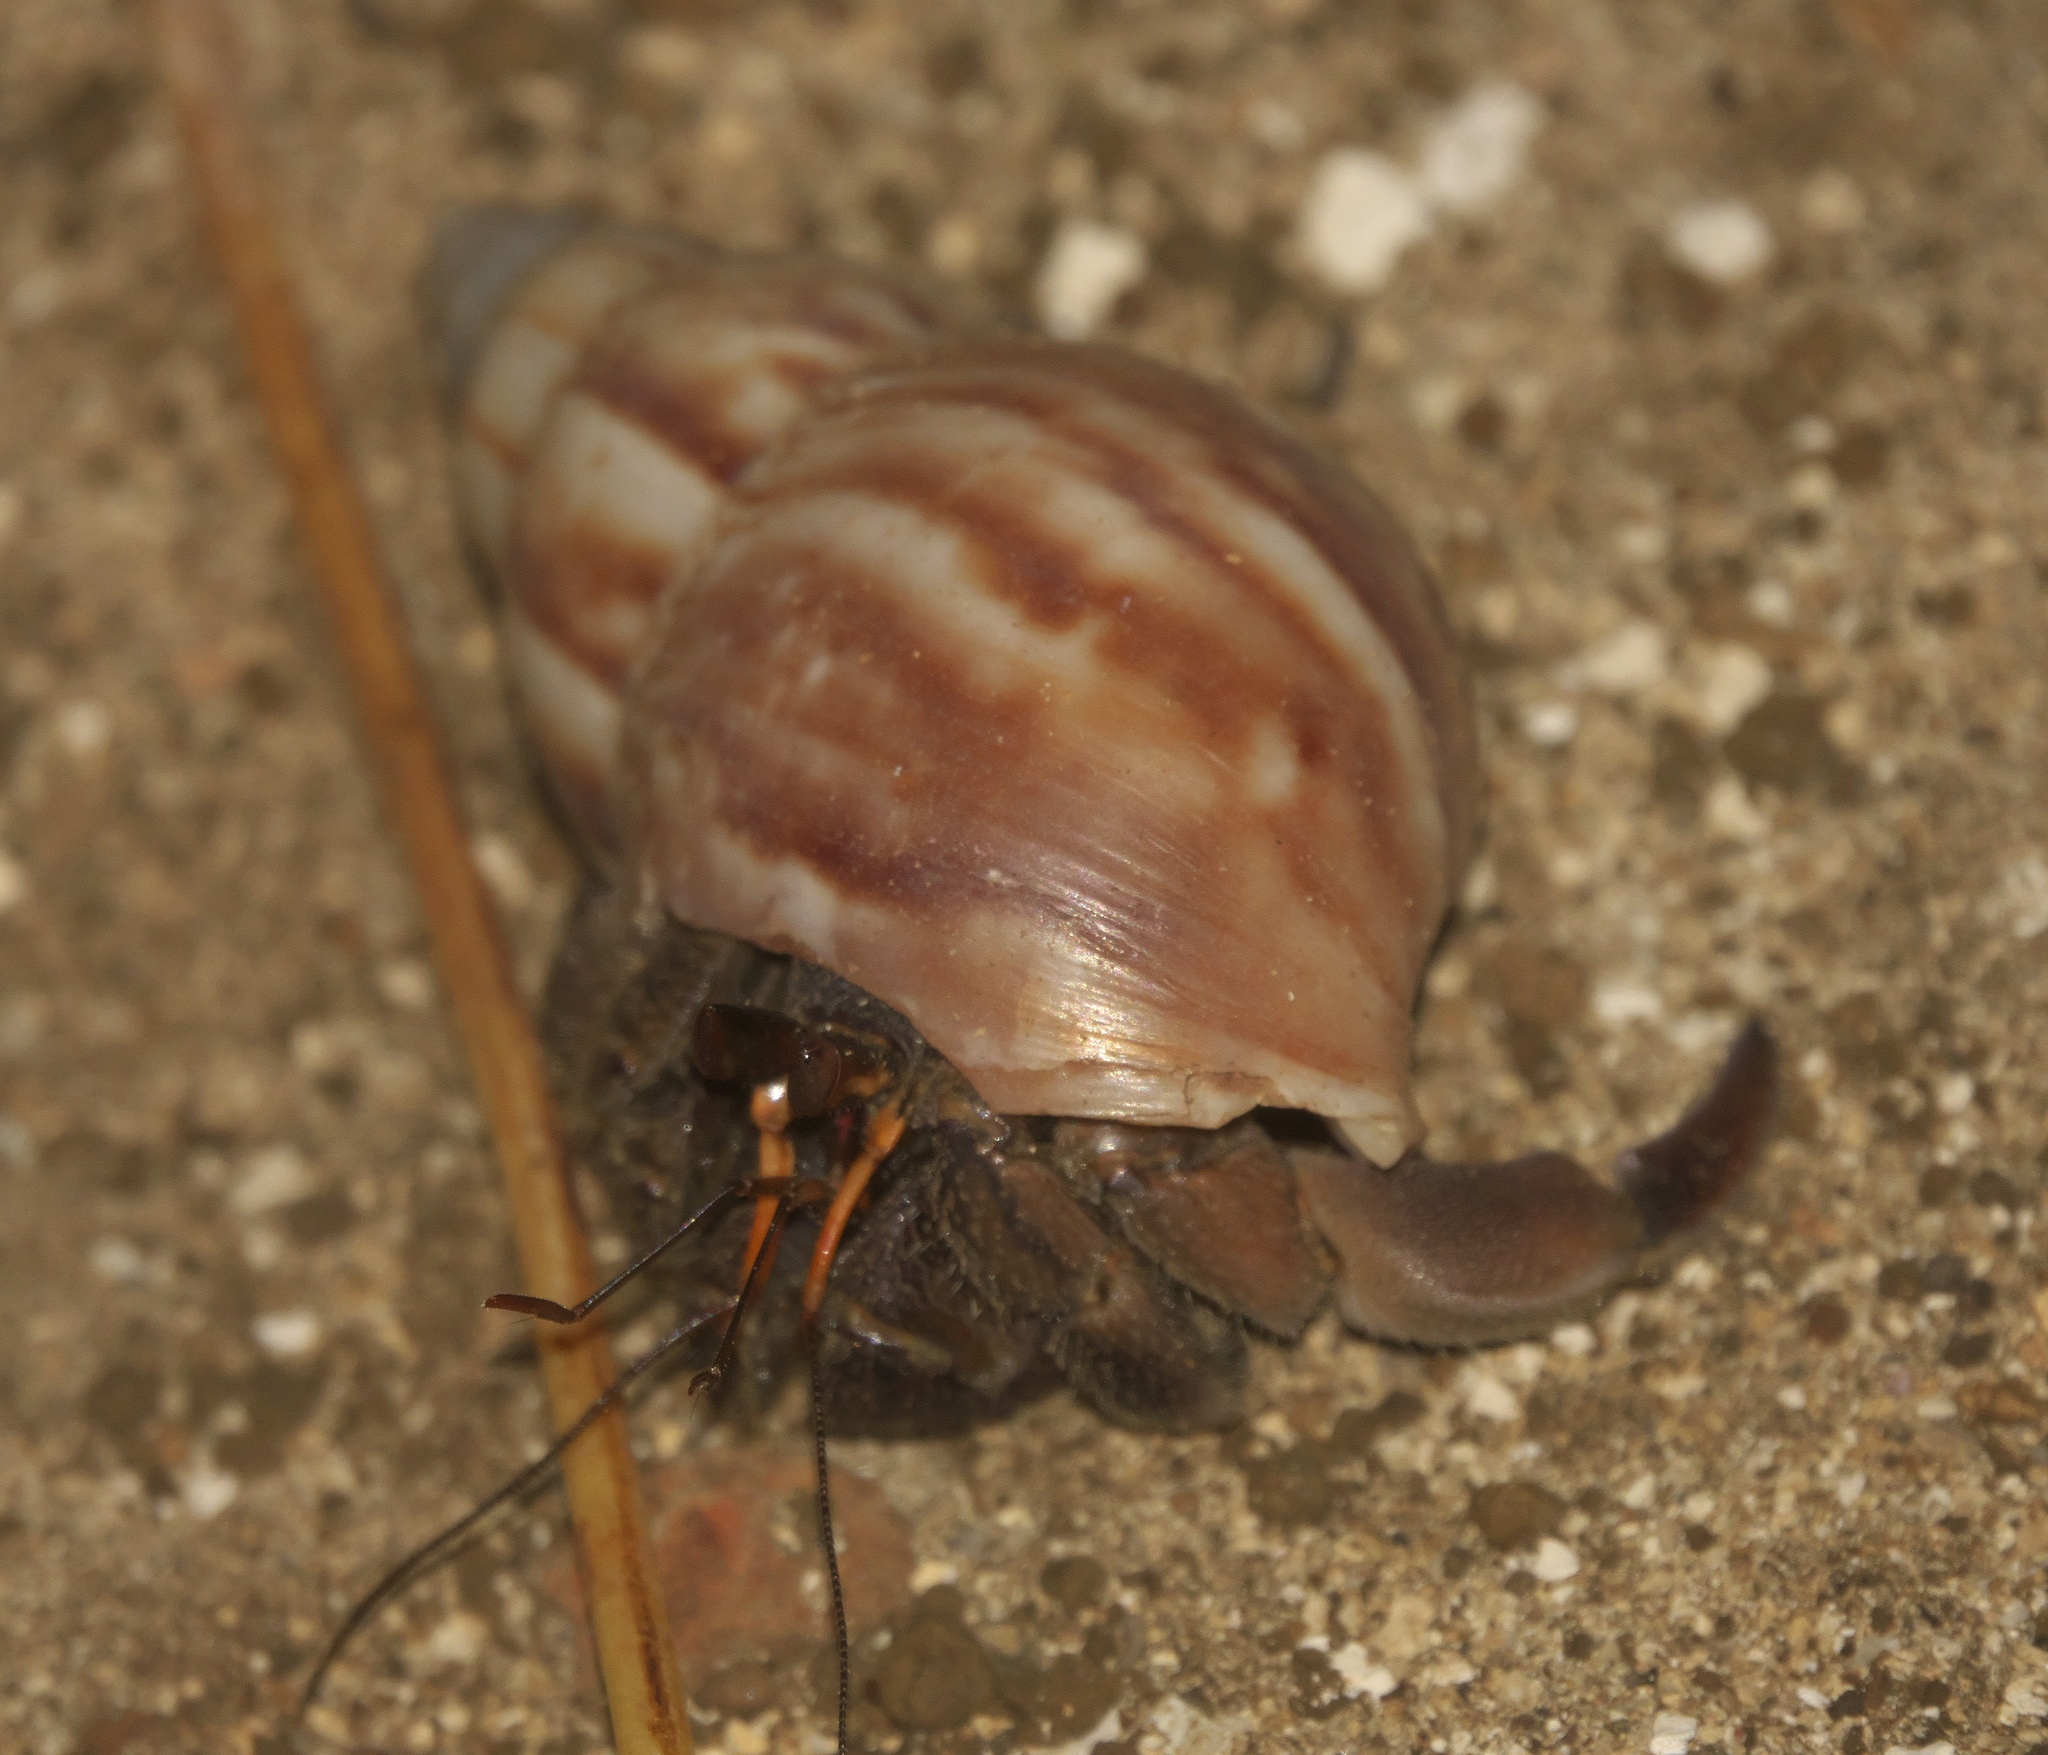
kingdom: Animalia
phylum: Arthropoda
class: Malacostraca
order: Decapoda
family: Coenobitidae
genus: Coenobita
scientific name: Coenobita rugosus
